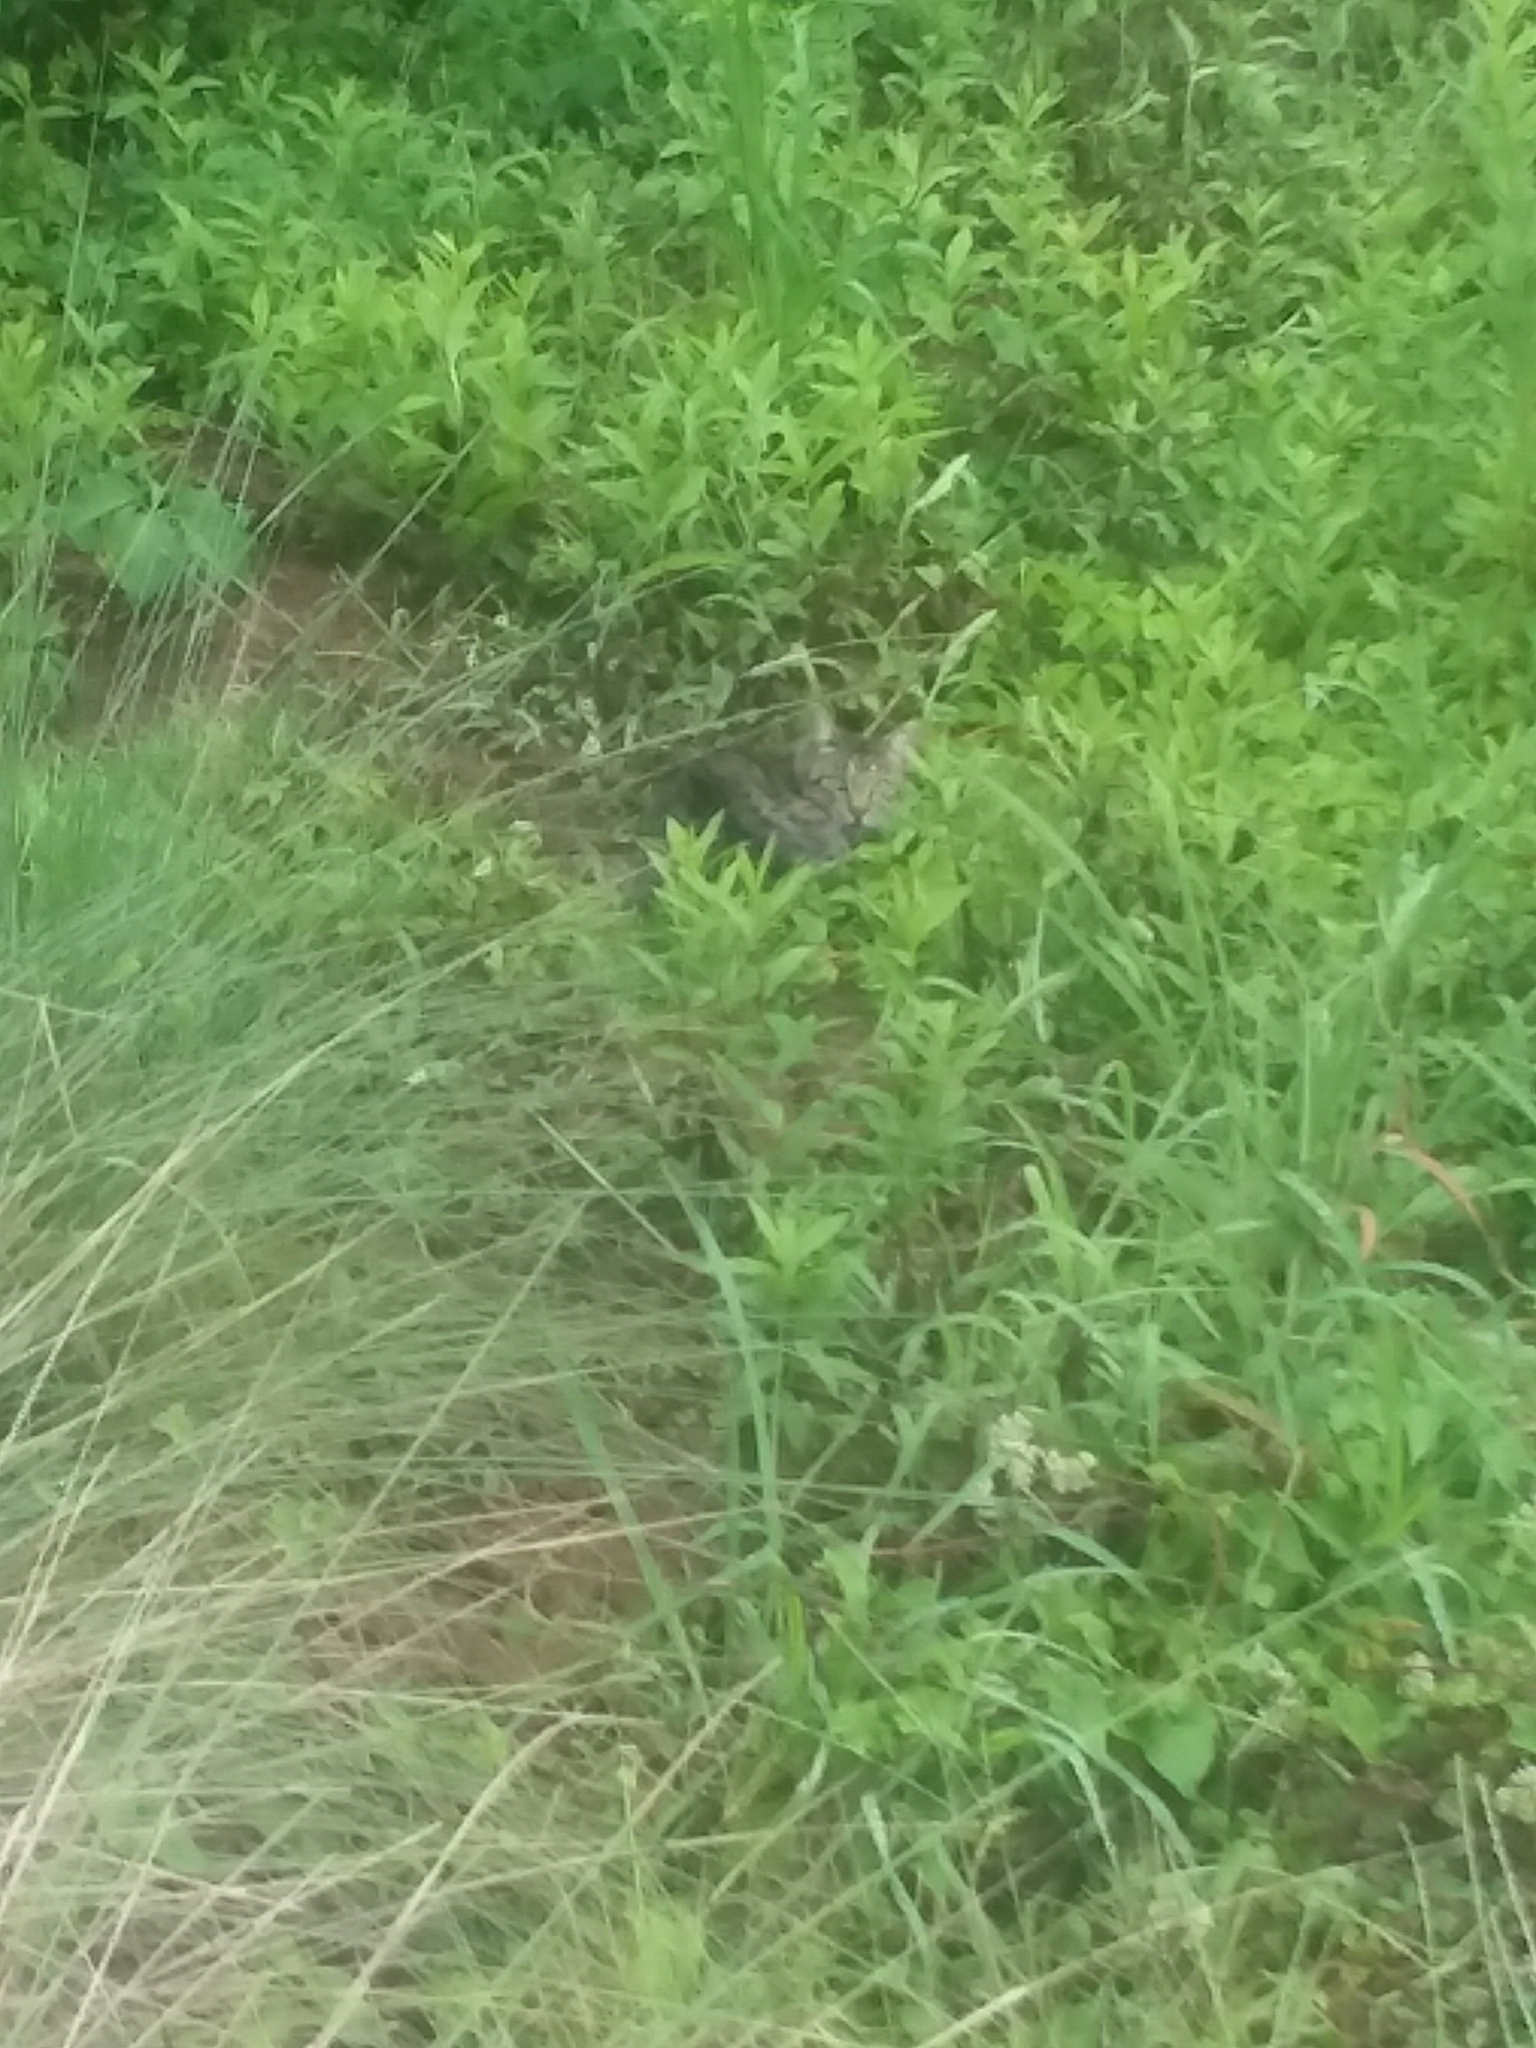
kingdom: Animalia
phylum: Chordata
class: Mammalia
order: Carnivora
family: Felidae
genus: Felis
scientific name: Felis catus
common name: Domestic cat
